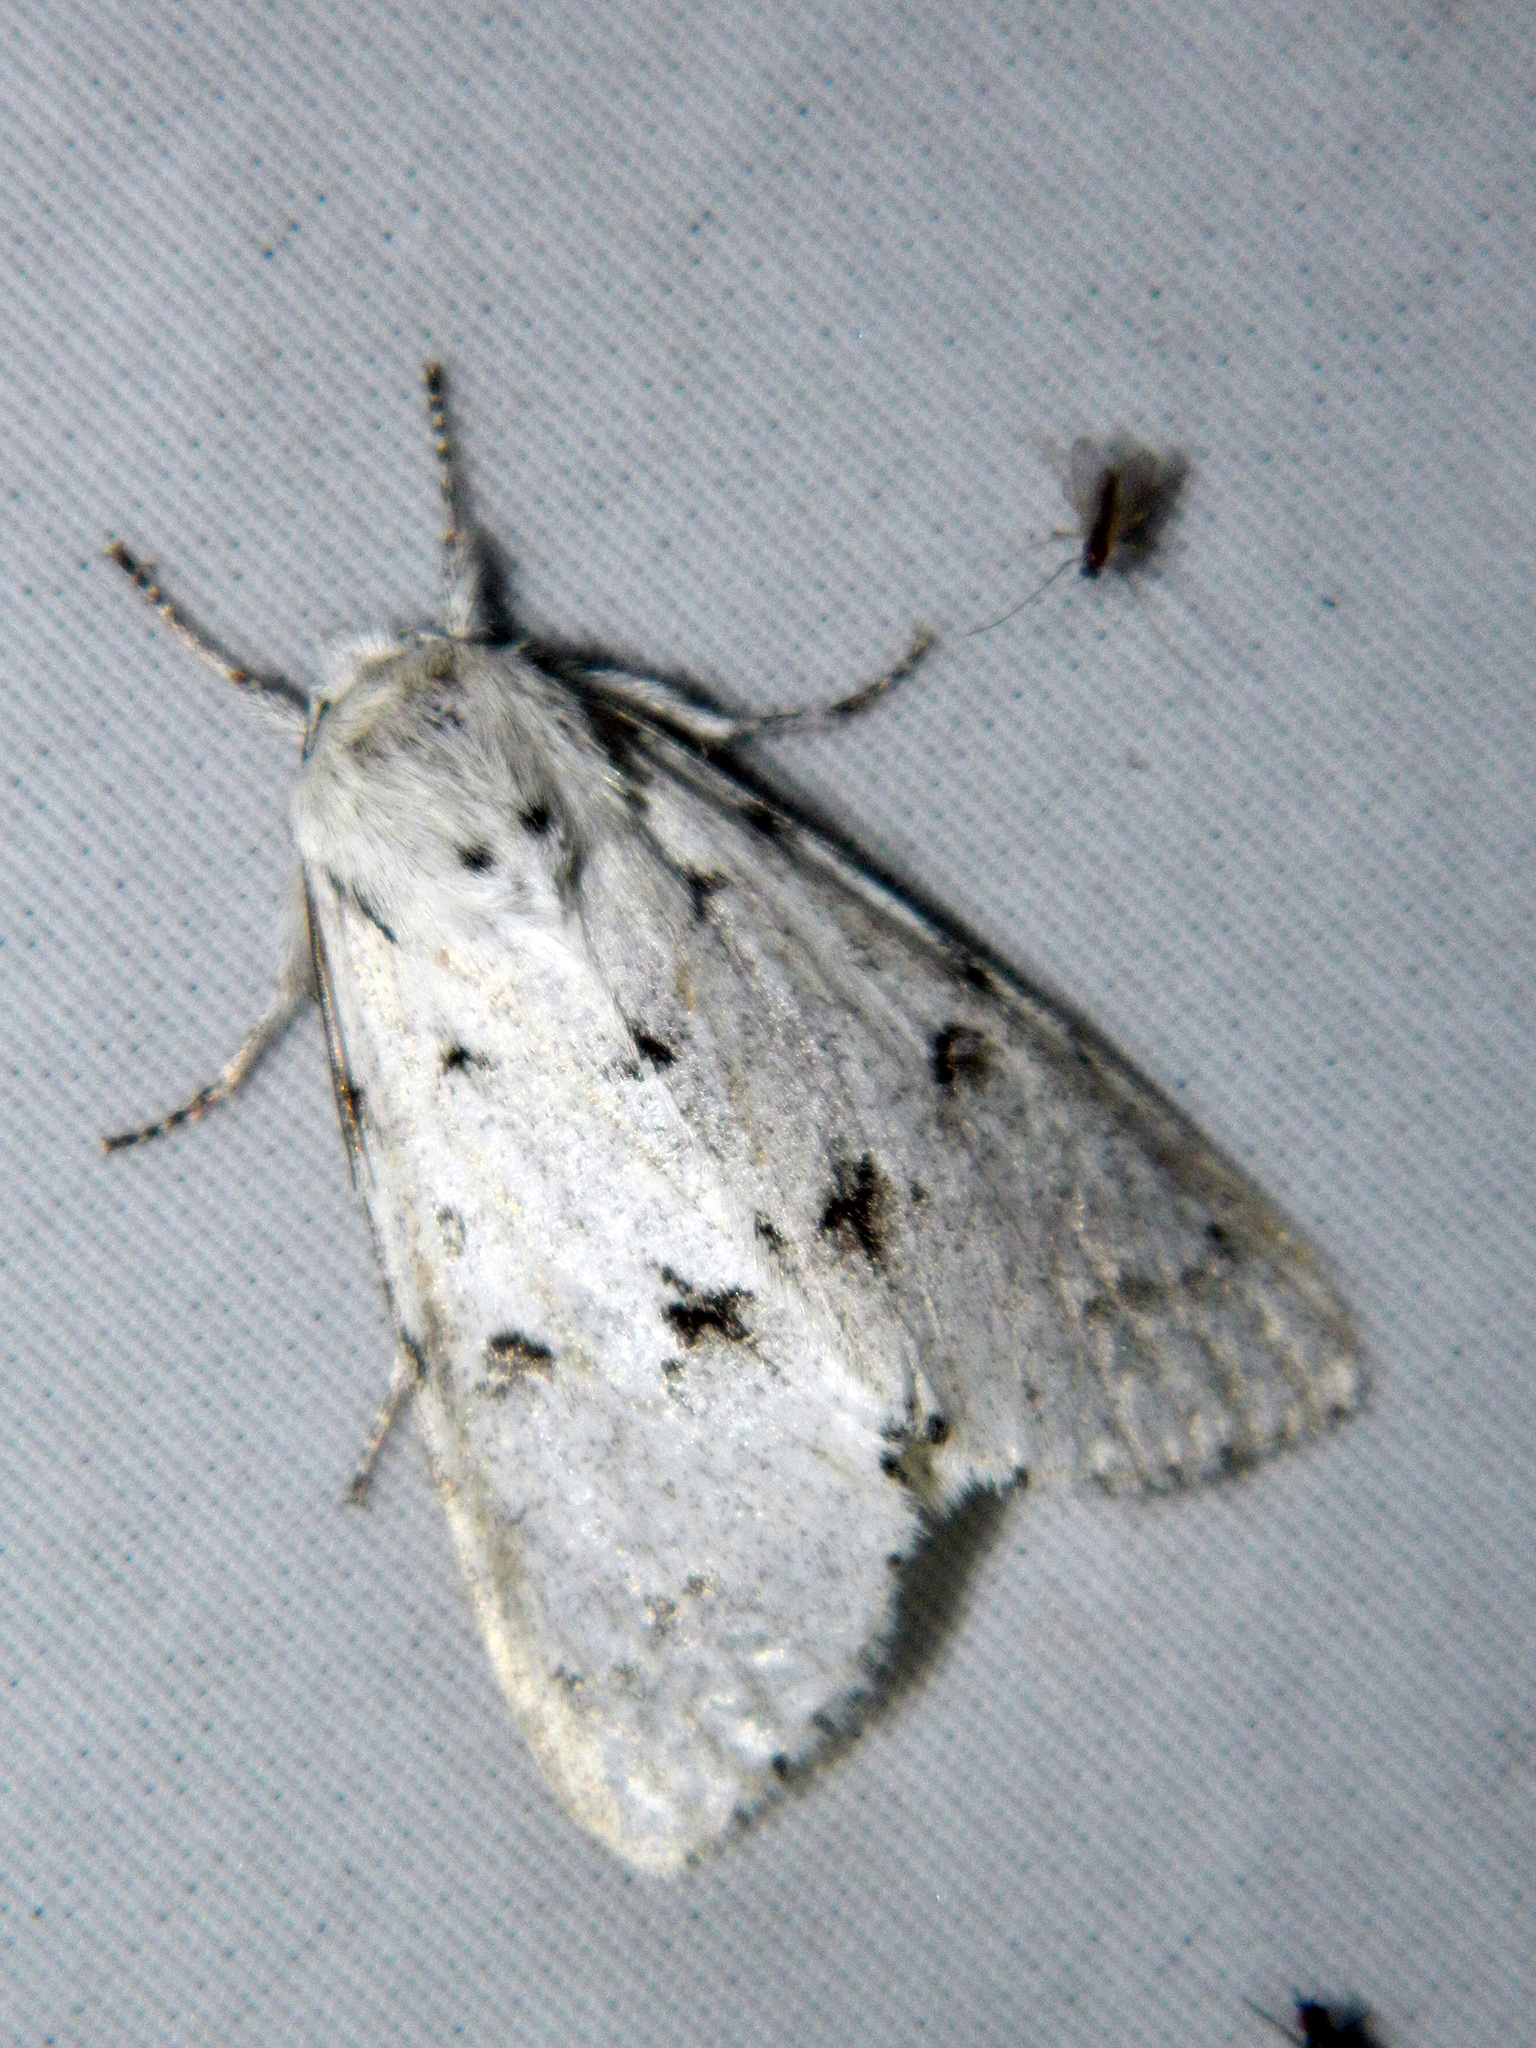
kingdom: Animalia
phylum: Arthropoda
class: Insecta
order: Lepidoptera
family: Noctuidae
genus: Acronicta
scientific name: Acronicta vulpina
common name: Miller dagger
